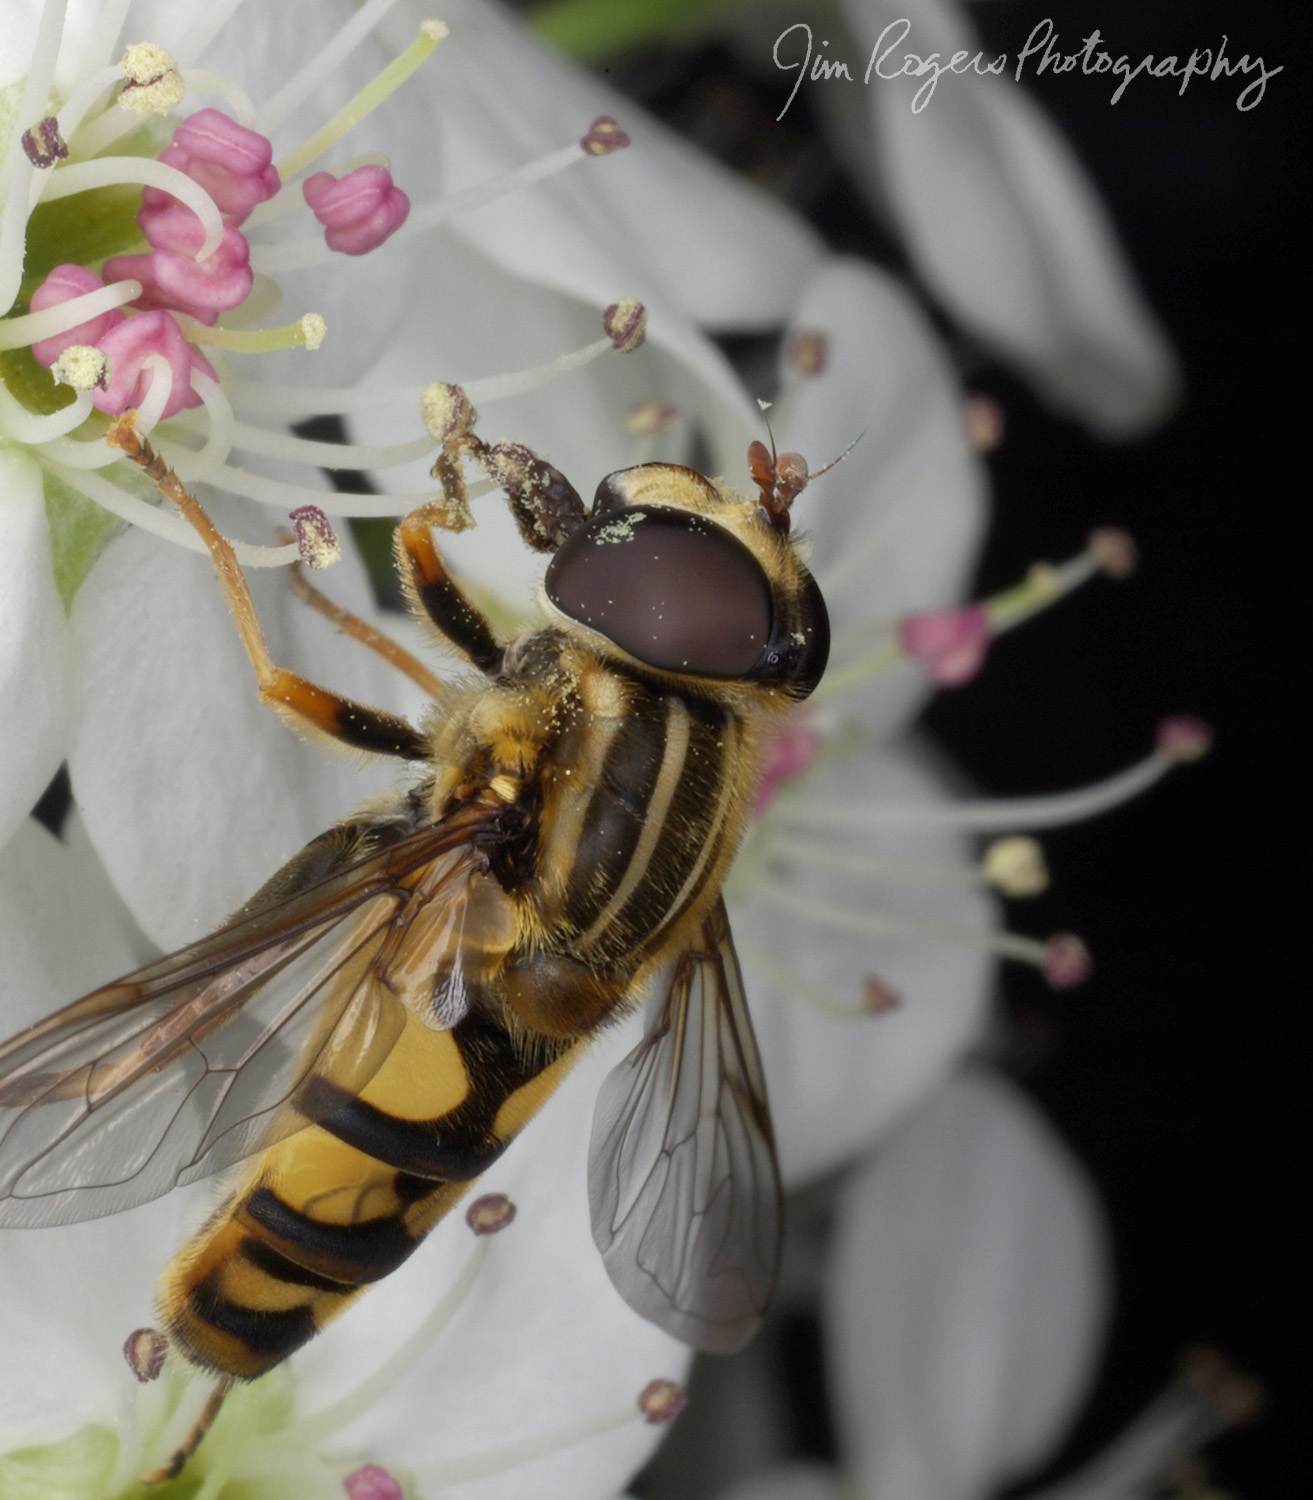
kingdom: Animalia
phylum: Arthropoda
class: Insecta
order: Diptera
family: Syrphidae
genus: Helophilus
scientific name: Helophilus fasciatus
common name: Narrow-headed marsh fly
